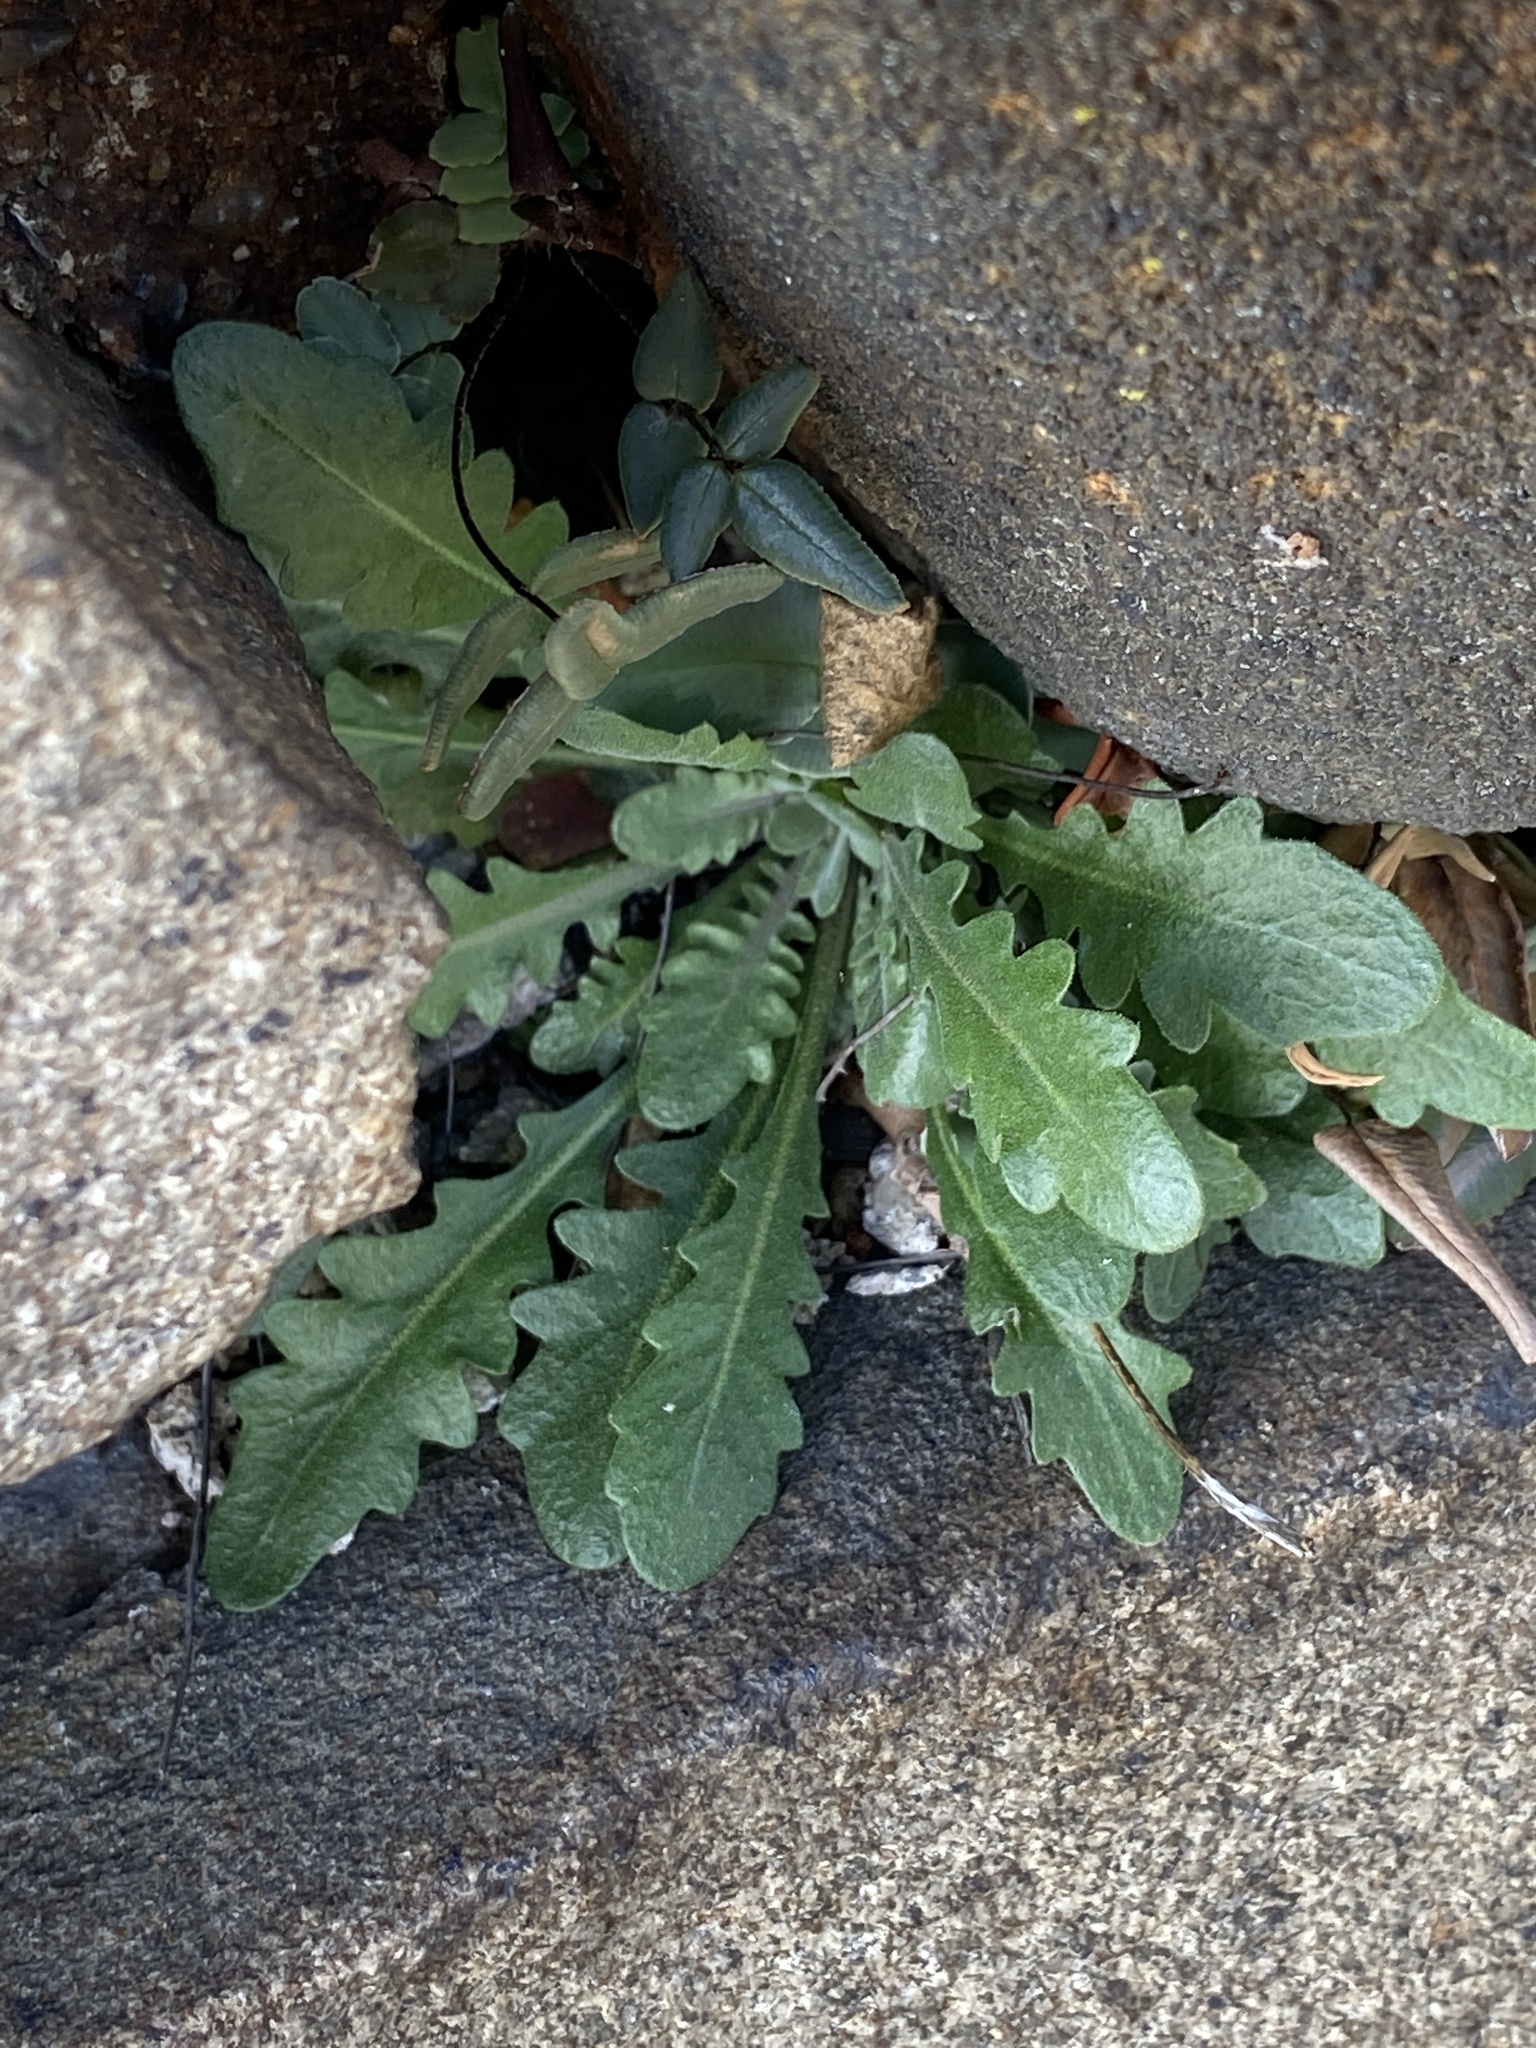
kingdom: Plantae
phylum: Tracheophyta
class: Magnoliopsida
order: Brassicales
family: Brassicaceae
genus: Arabidopsis
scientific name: Arabidopsis lyrata
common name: Lyrate rockcress
